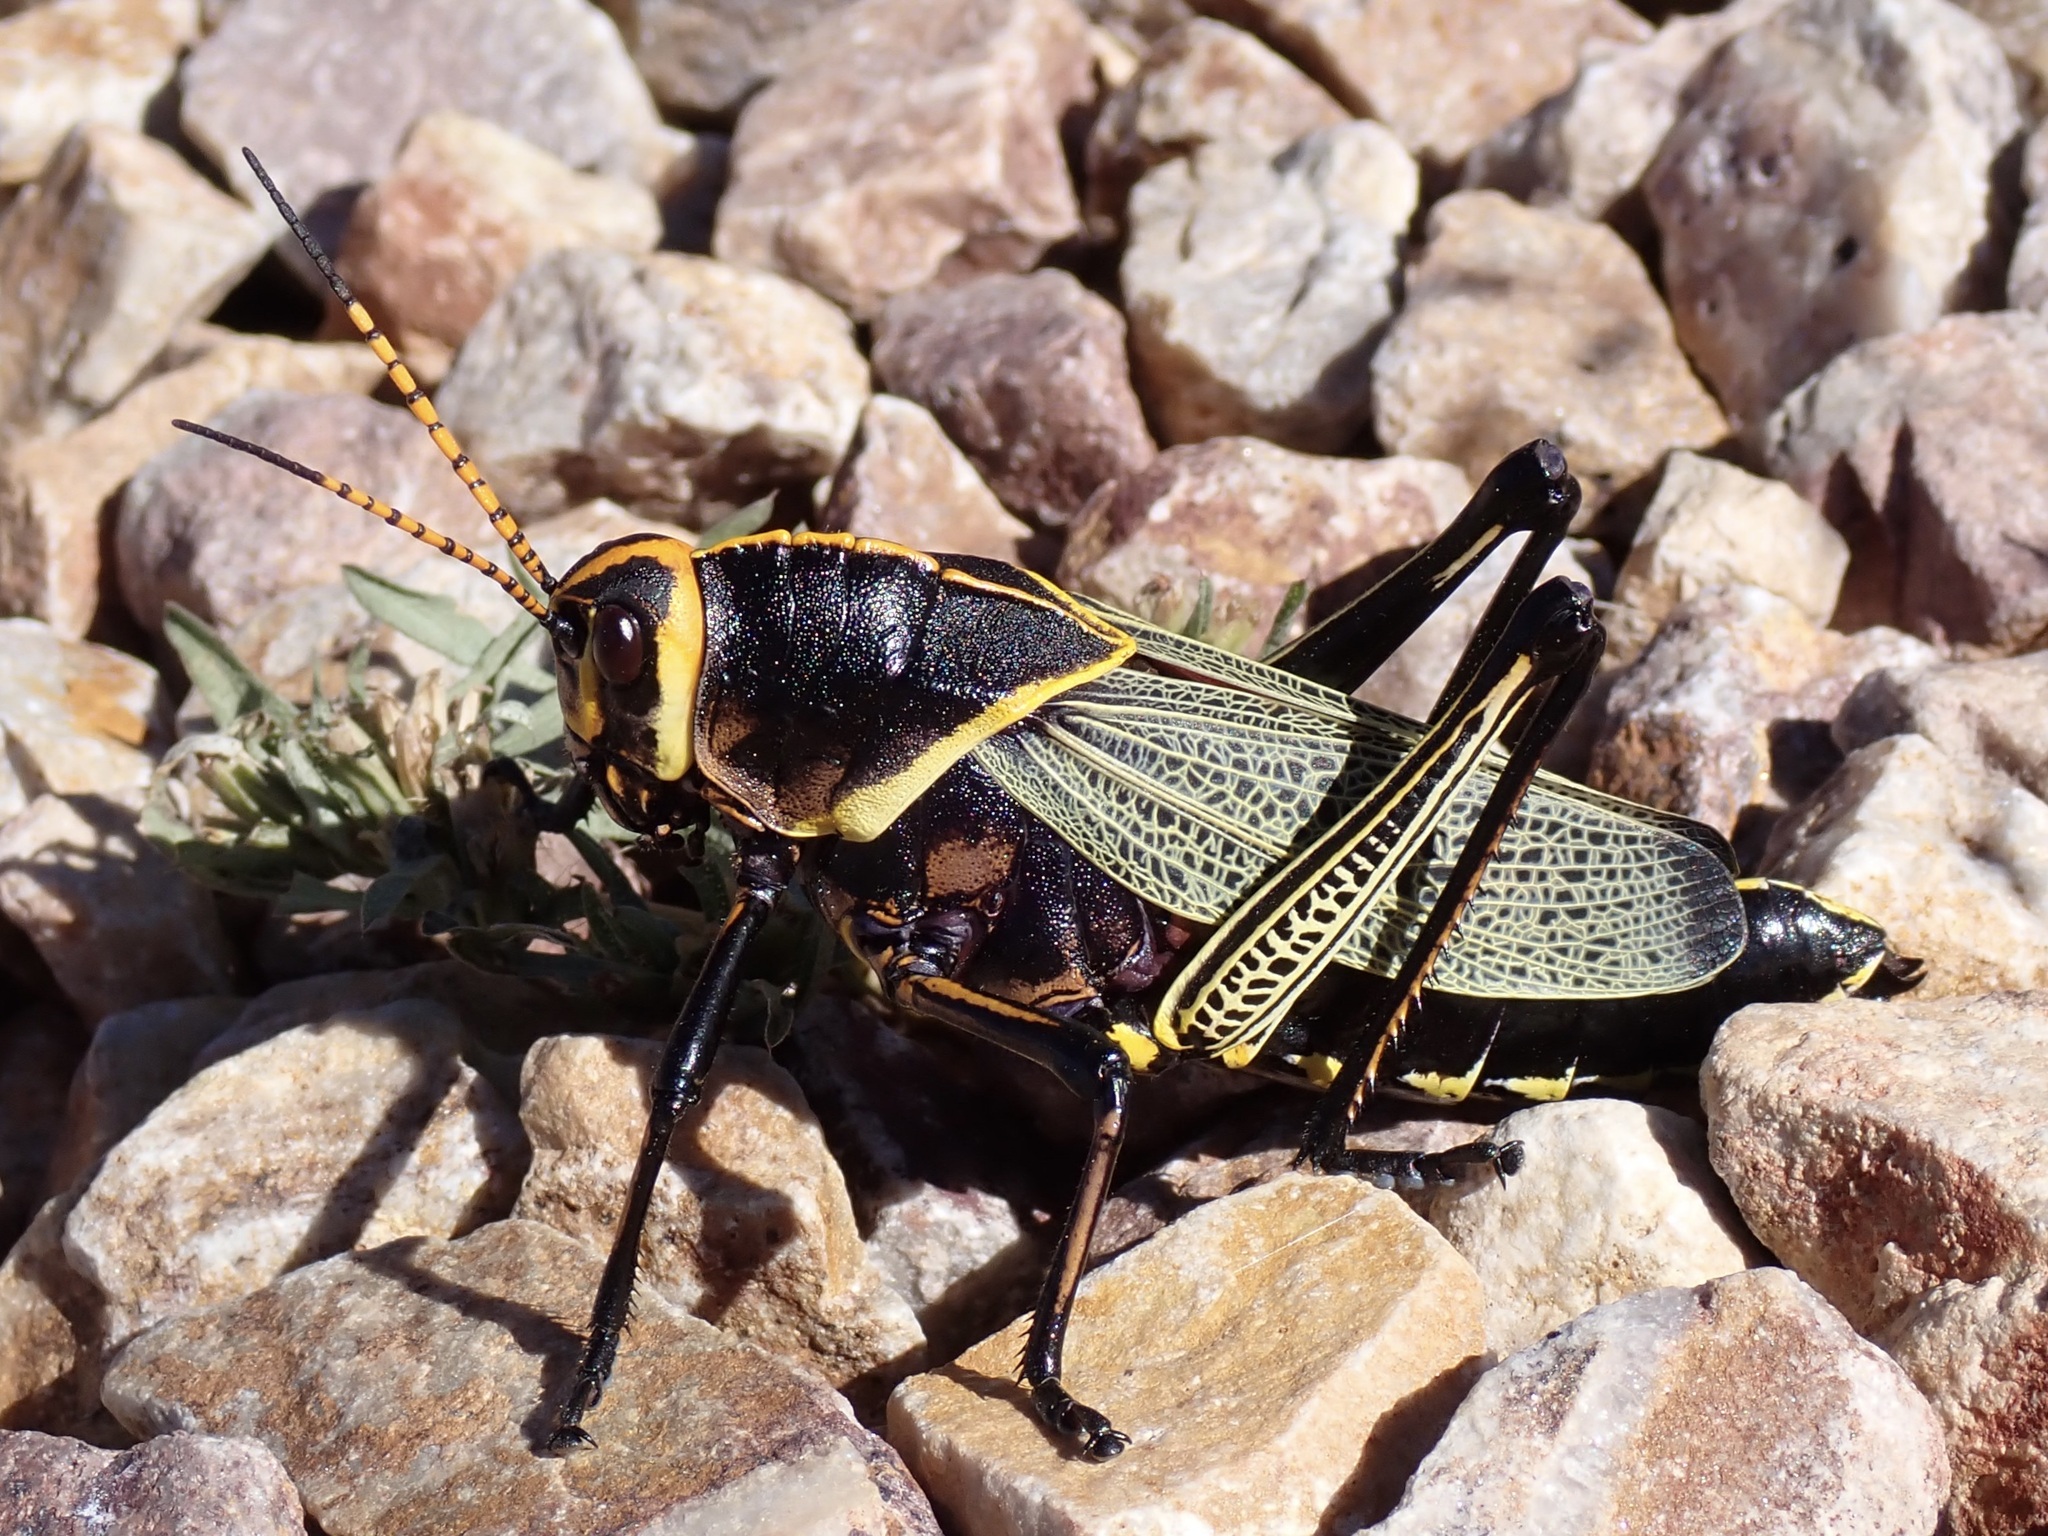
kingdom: Animalia
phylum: Arthropoda
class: Insecta
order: Orthoptera
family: Romaleidae
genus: Romalea
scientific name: Romalea
